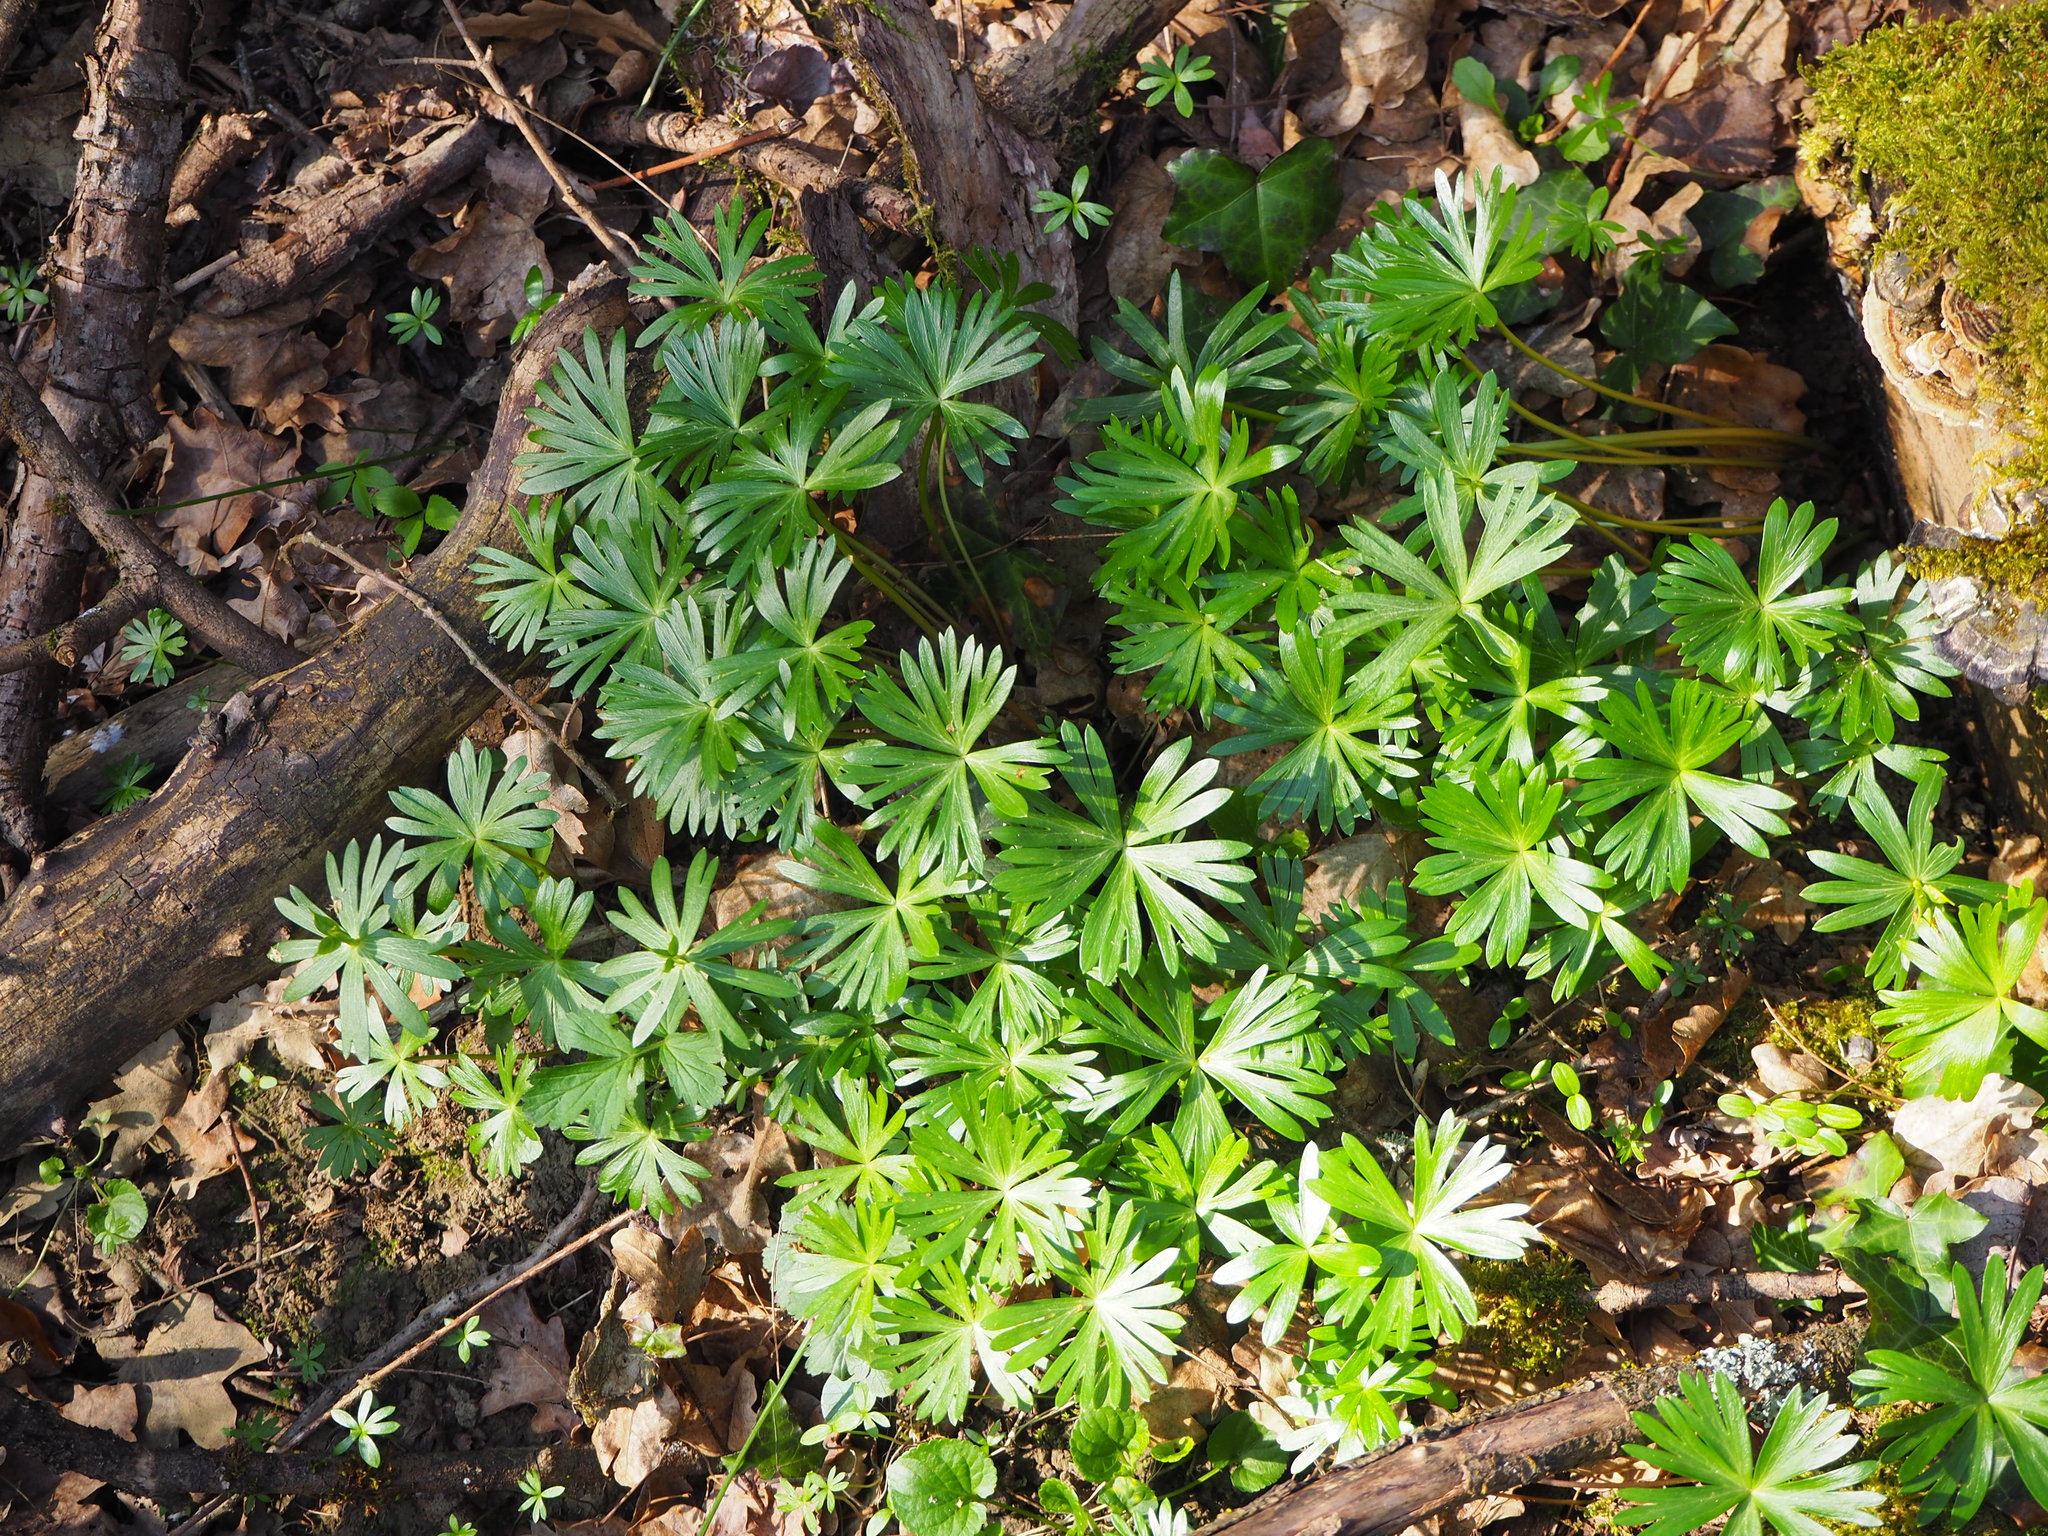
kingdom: Plantae
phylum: Tracheophyta
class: Magnoliopsida
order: Ranunculales
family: Ranunculaceae
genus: Eranthis
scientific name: Eranthis hyemalis
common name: Winter aconite
